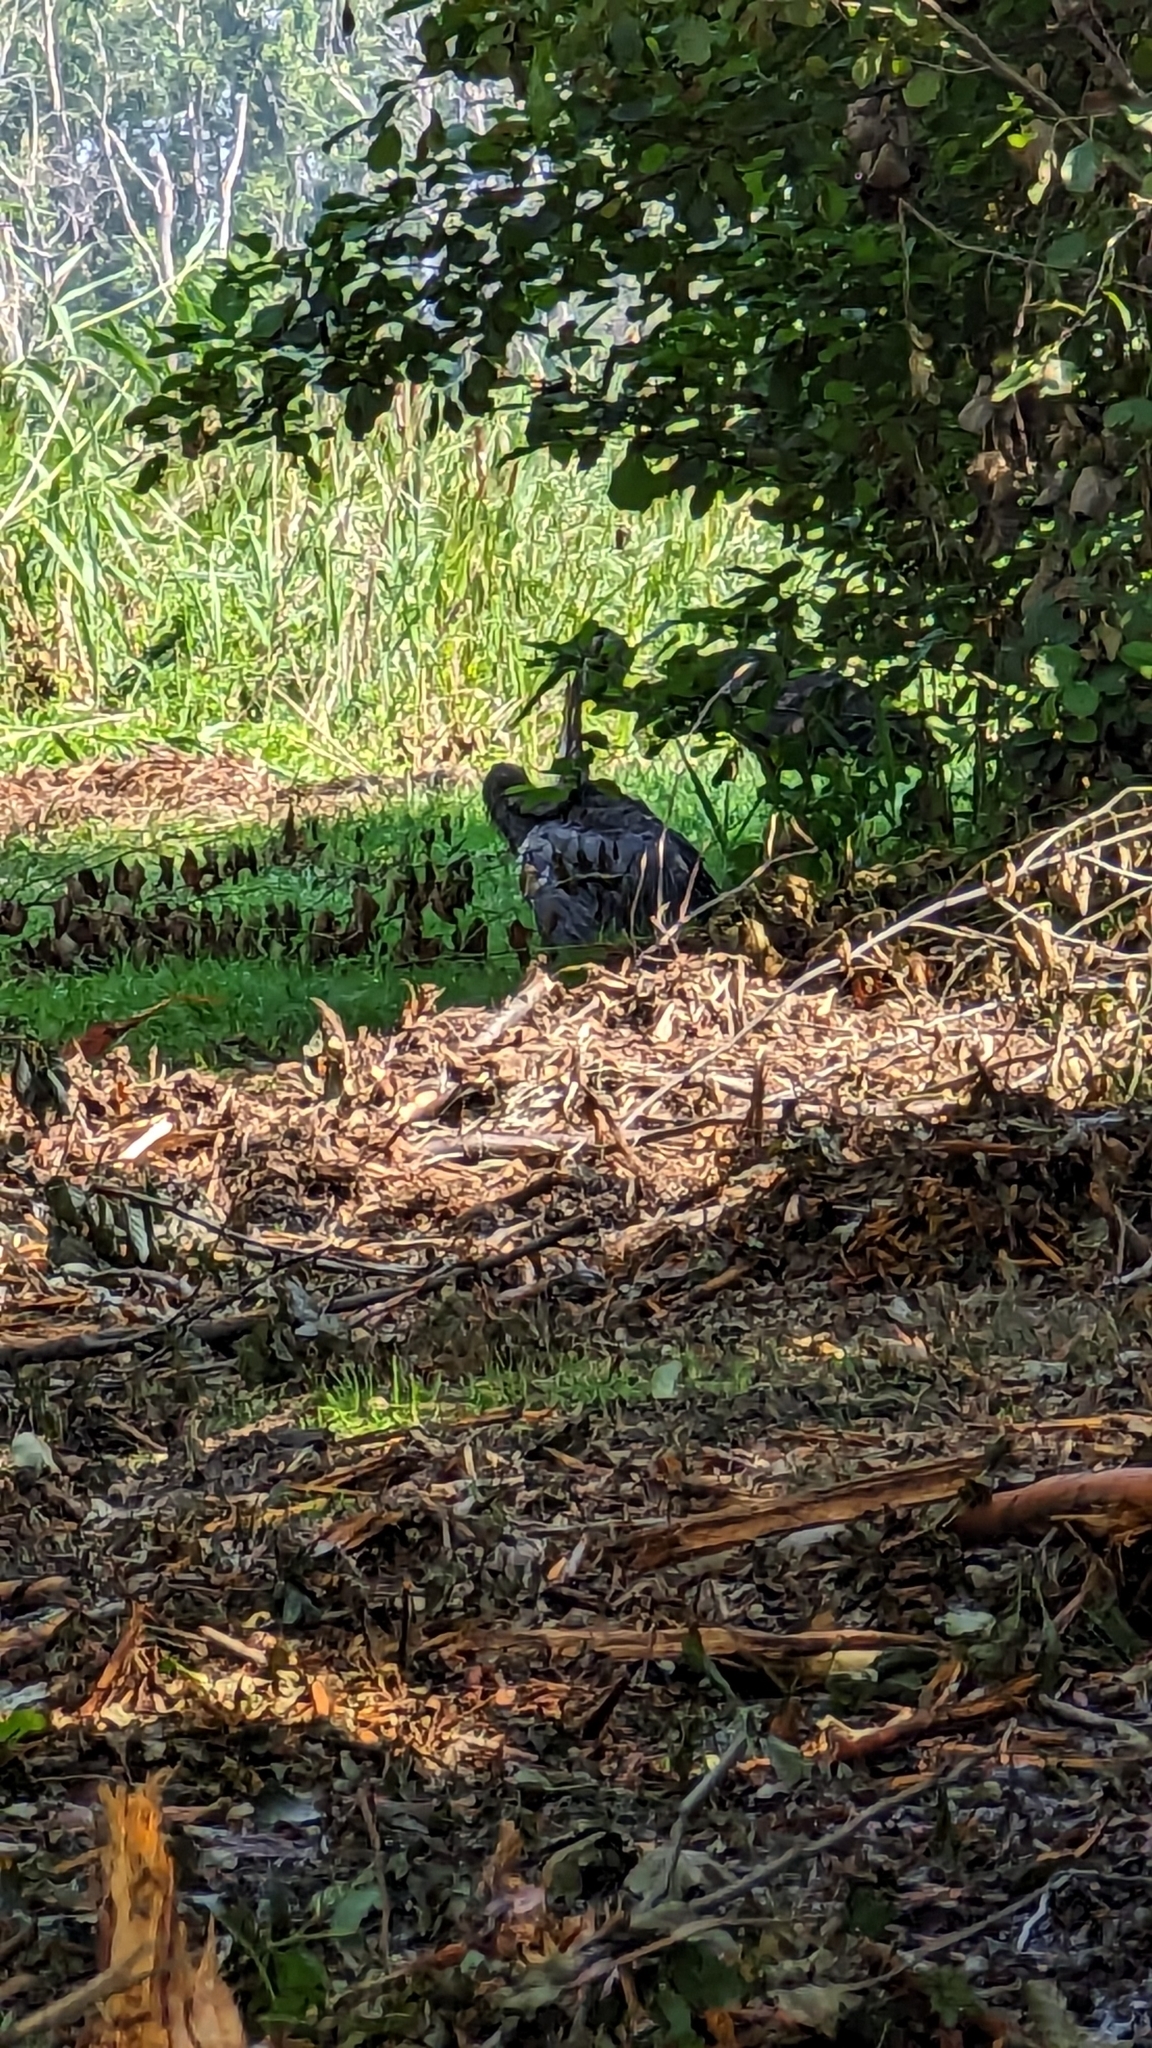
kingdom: Animalia
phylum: Chordata
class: Aves
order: Pelecaniformes
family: Ardeidae
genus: Ardea
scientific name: Ardea herodias
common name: Great blue heron
